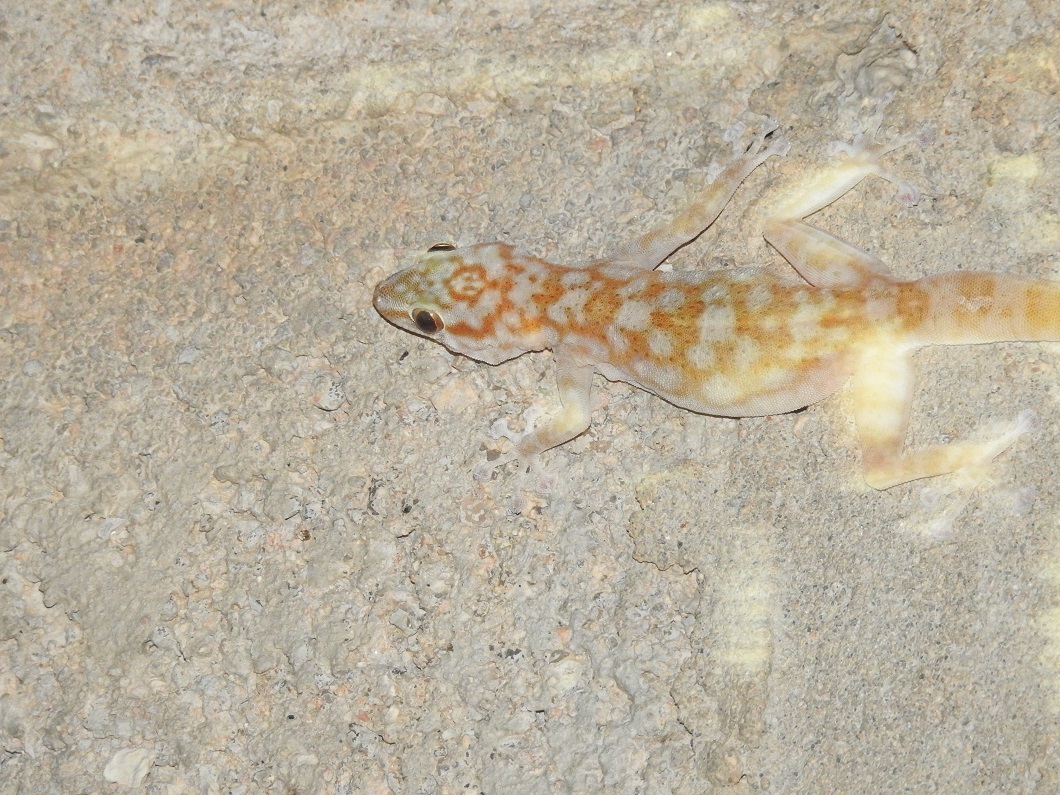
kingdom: Animalia
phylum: Chordata
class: Squamata
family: Phyllodactylidae
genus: Ptyodactylus
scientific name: Ptyodactylus togoensis
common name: Togo fan-footed gecko
